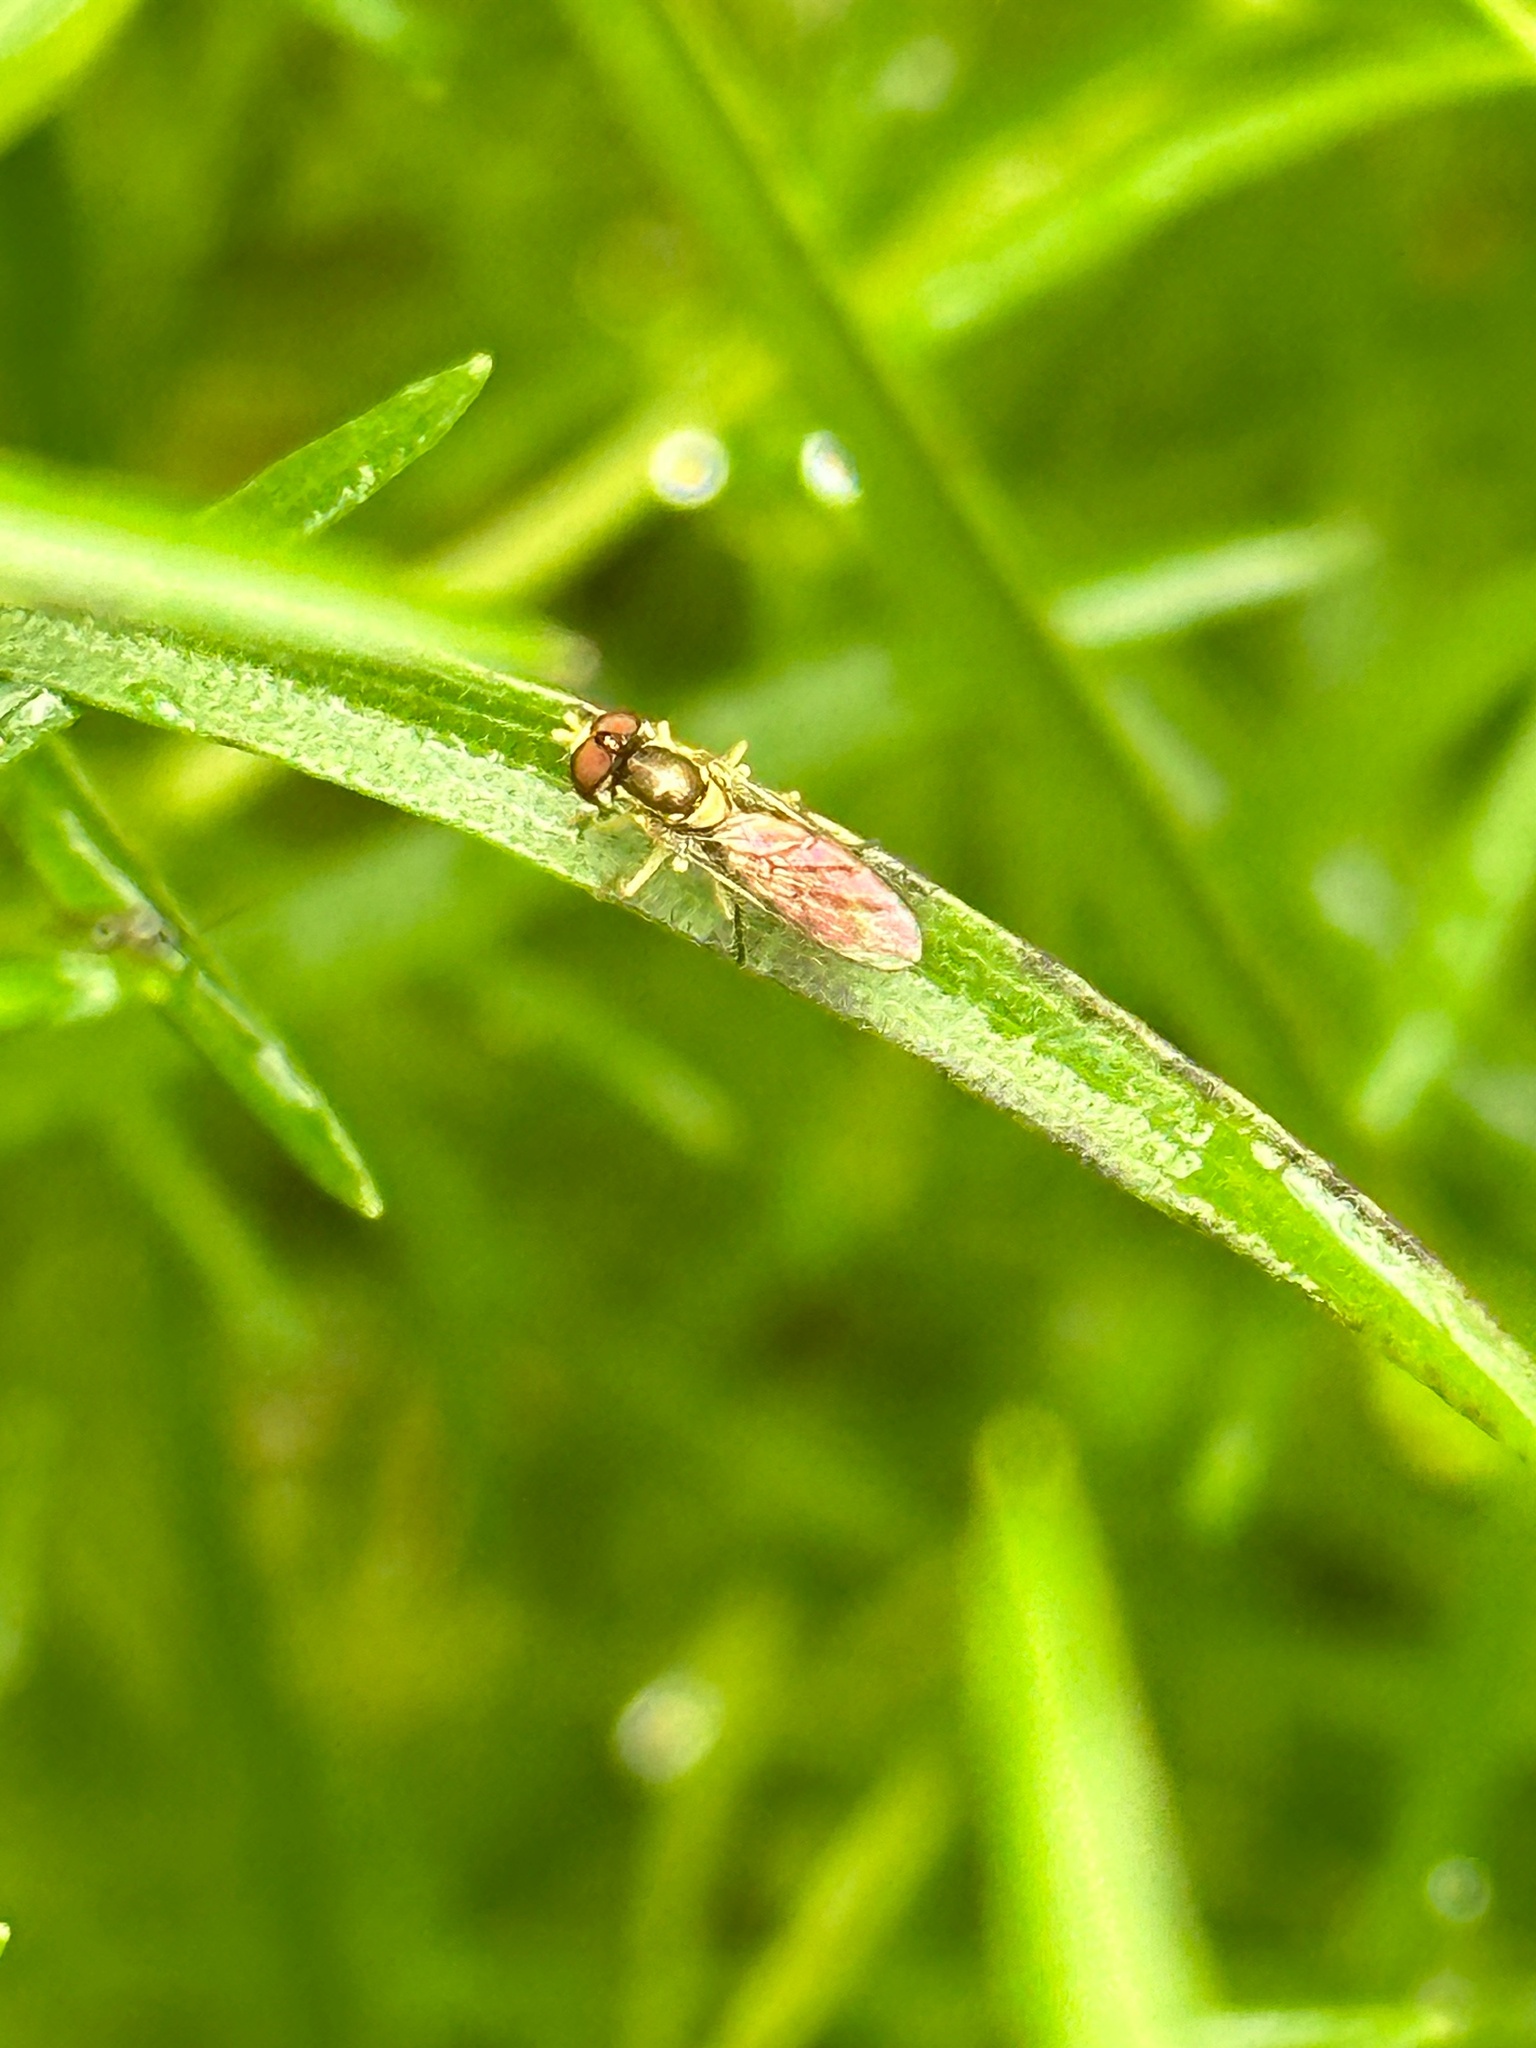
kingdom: Animalia
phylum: Arthropoda
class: Insecta
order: Diptera
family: Syrphidae
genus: Toxomerus
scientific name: Toxomerus marginatus
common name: Syrphid fly
